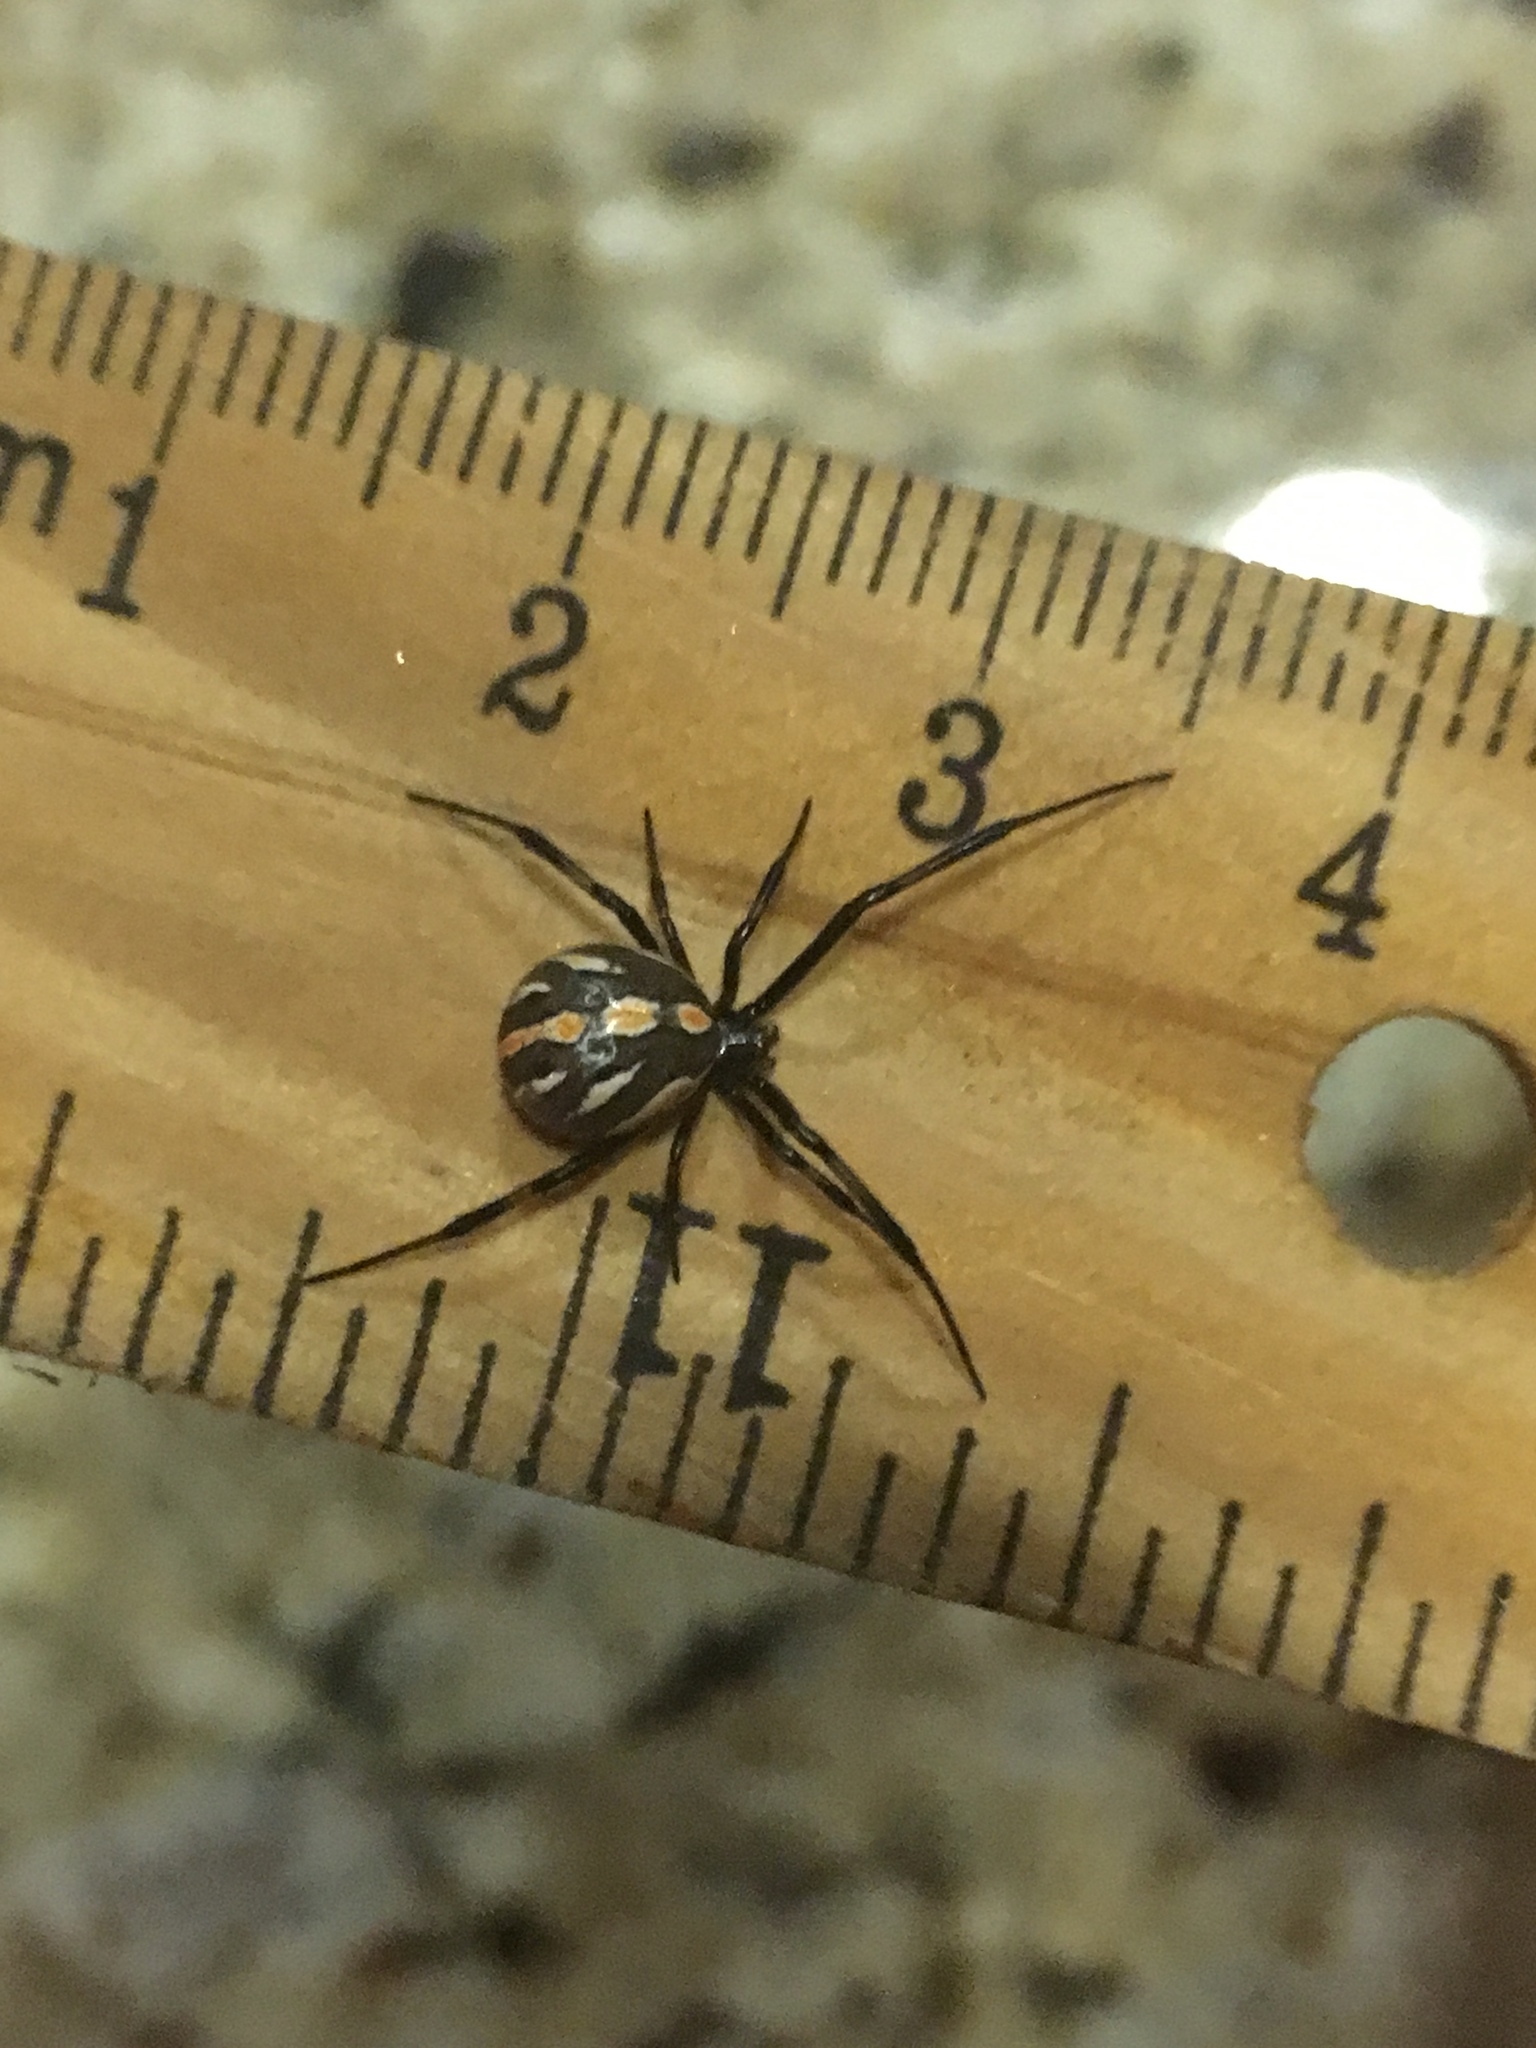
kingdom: Animalia
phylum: Arthropoda
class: Arachnida
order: Araneae
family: Theridiidae
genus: Latrodectus
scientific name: Latrodectus hesperus
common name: Western black widow
